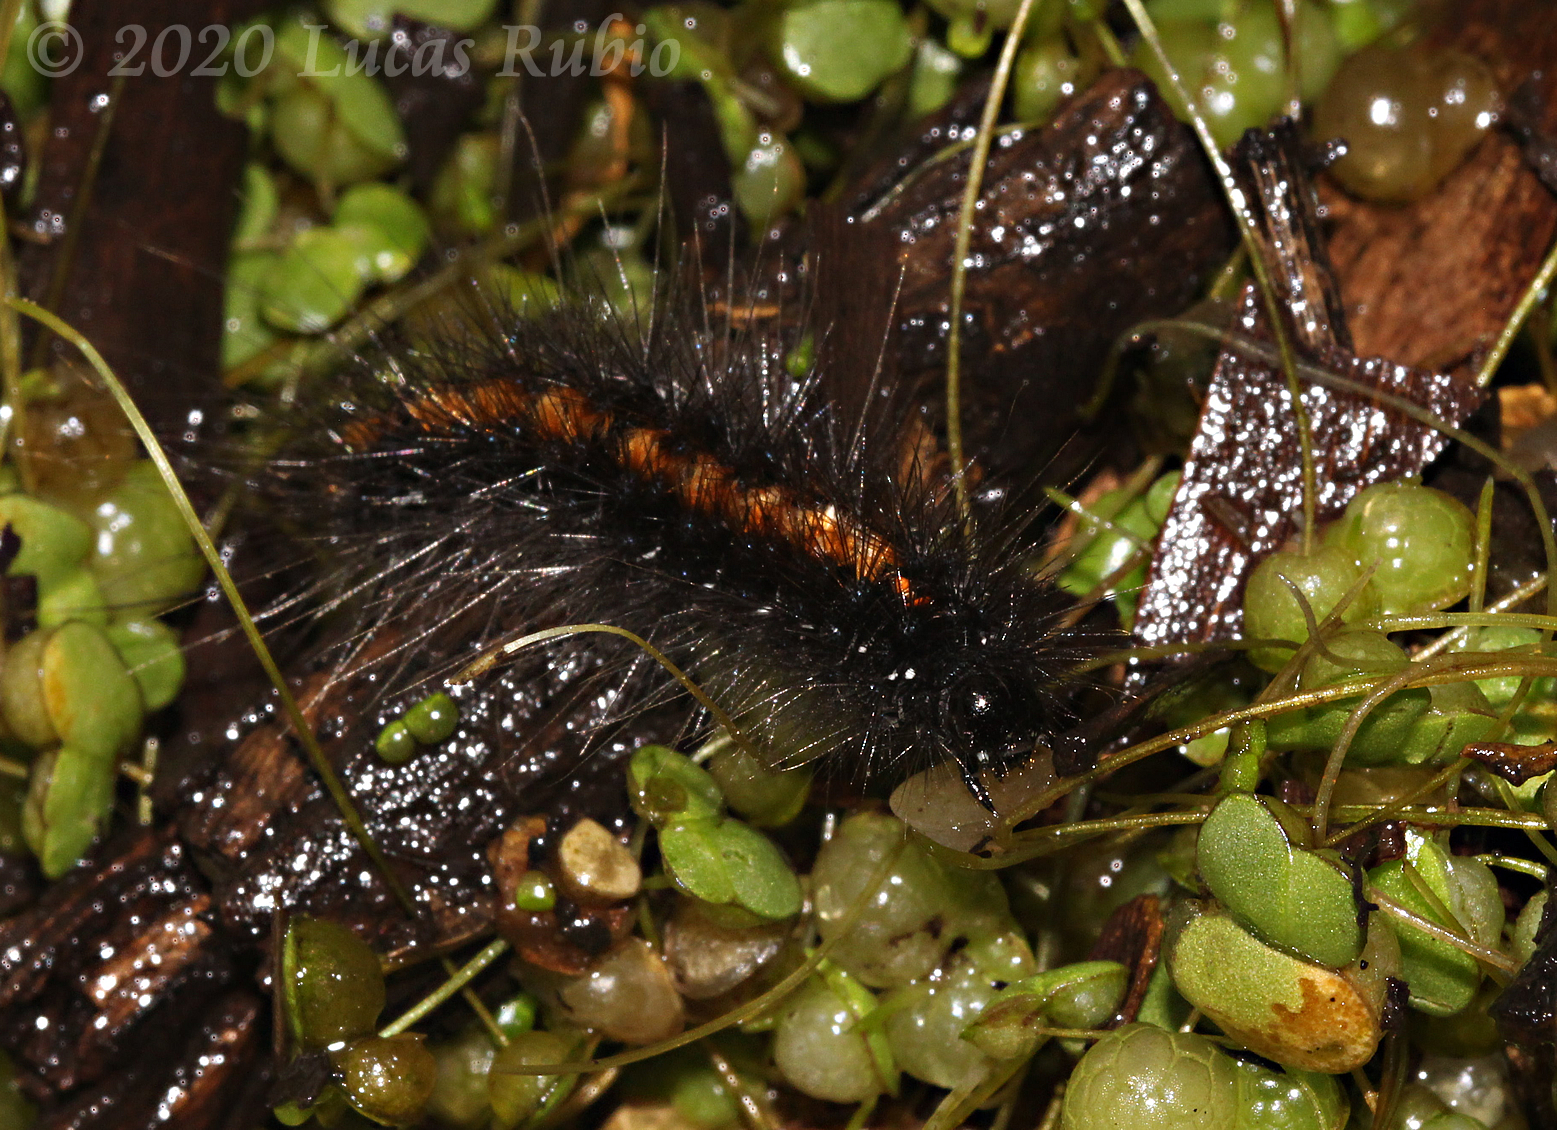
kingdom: Animalia
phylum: Arthropoda
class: Insecta
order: Lepidoptera
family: Erebidae
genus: Paracles
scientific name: Paracles azollae
